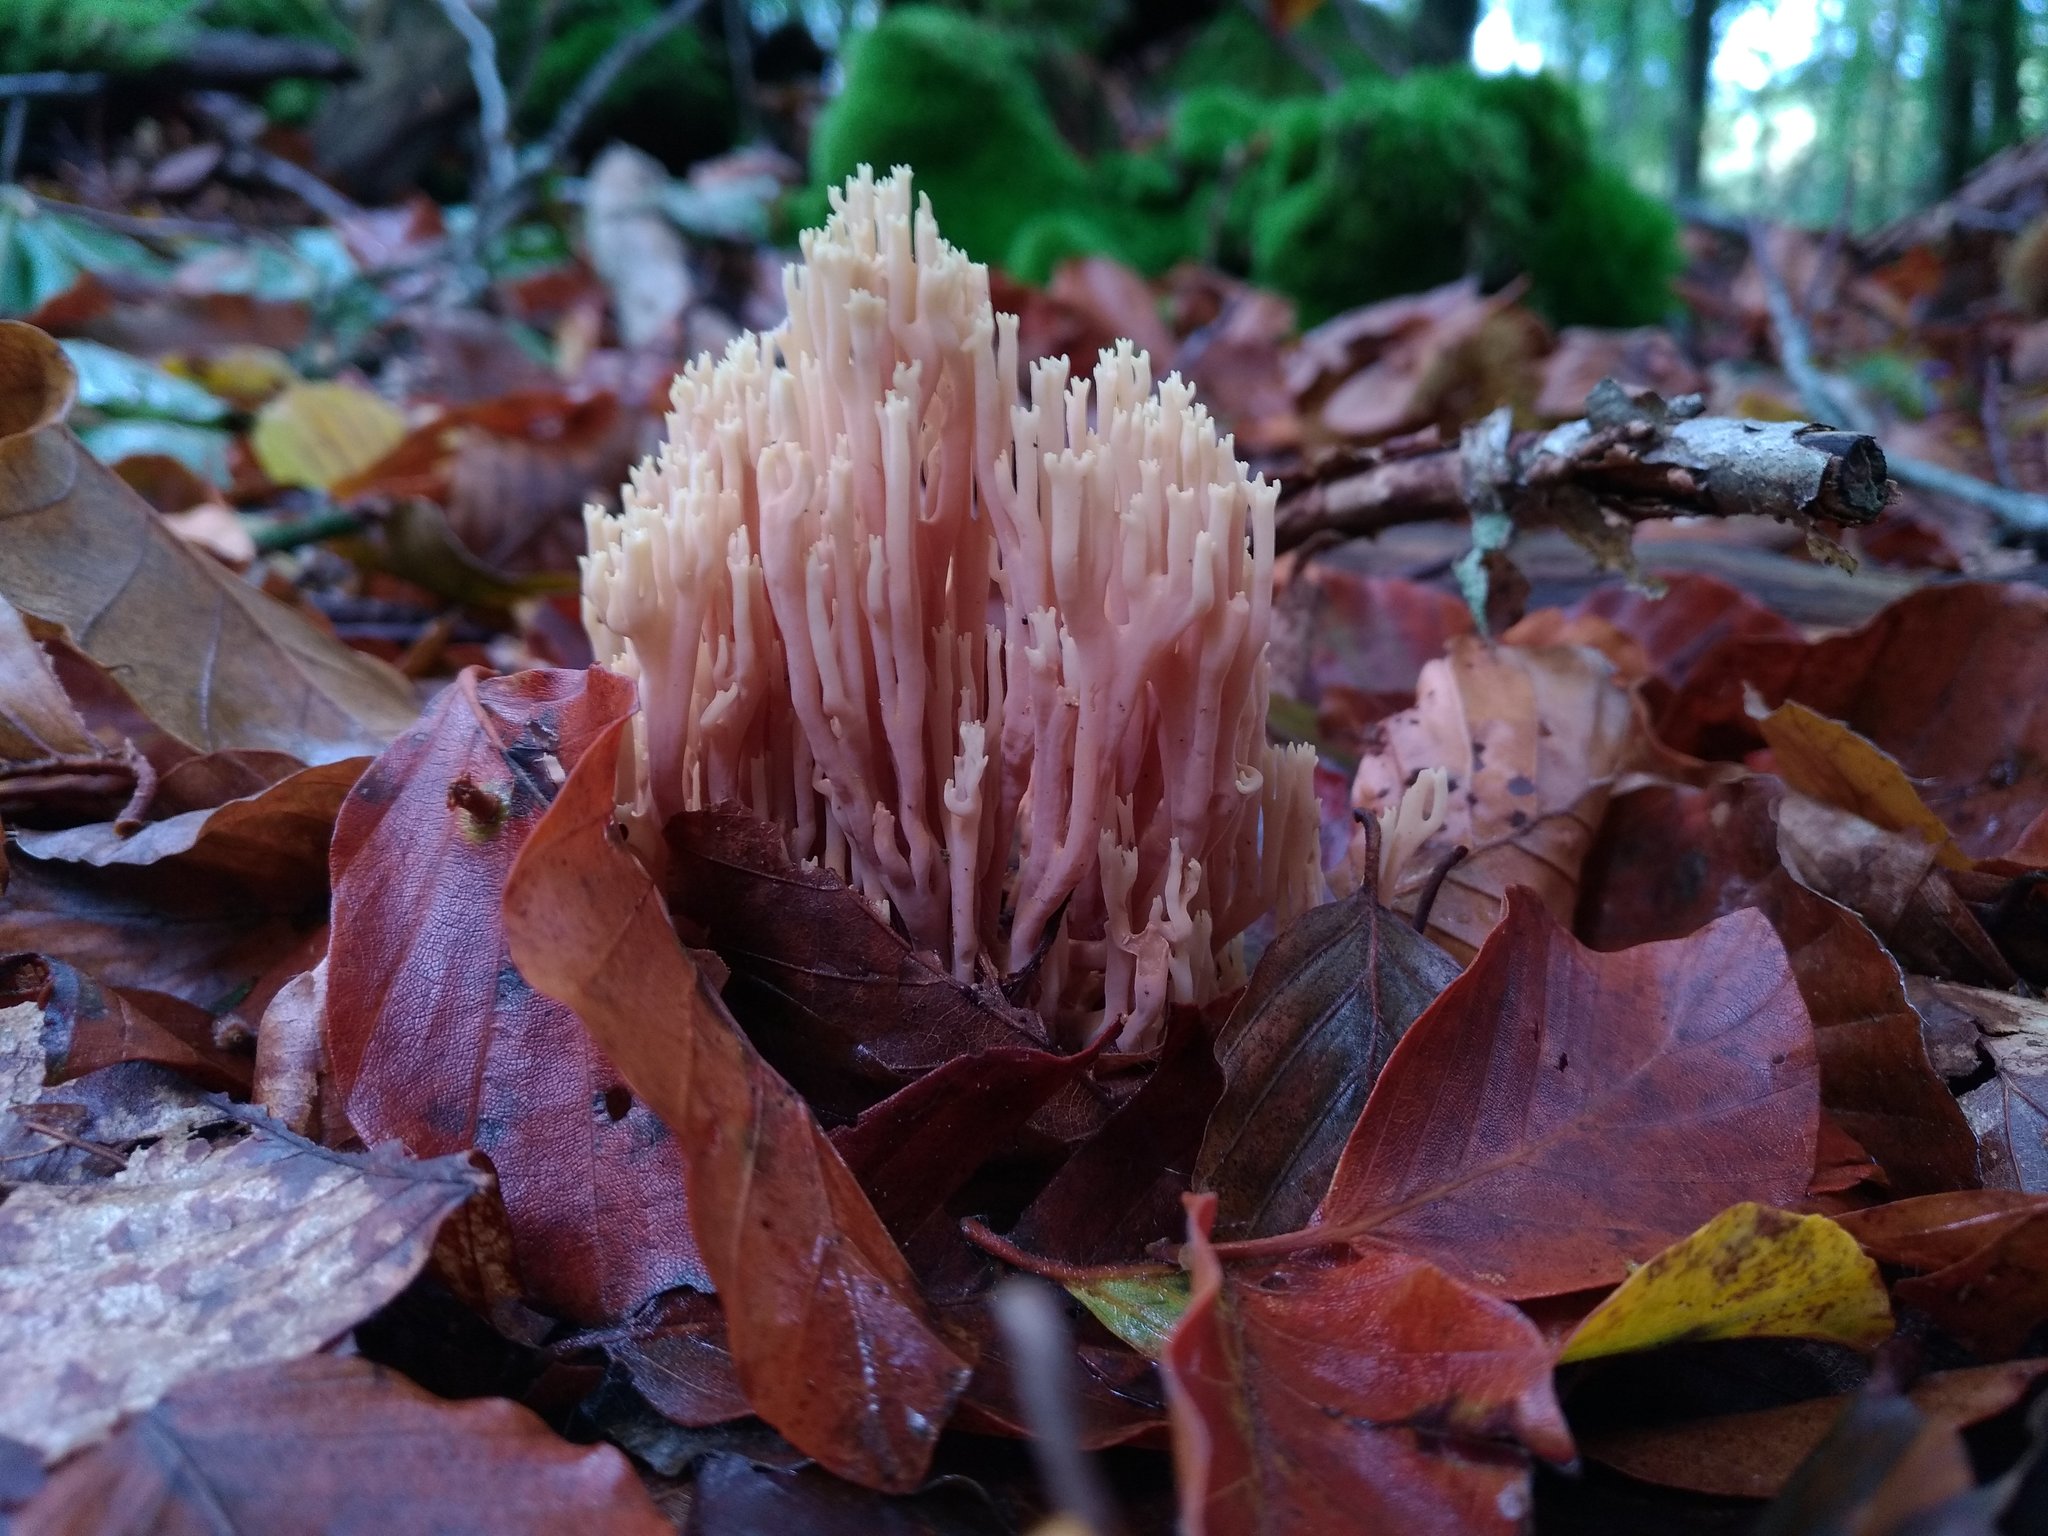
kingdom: Fungi
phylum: Basidiomycota
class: Agaricomycetes
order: Gomphales
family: Gomphaceae
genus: Ramaria
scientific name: Ramaria stricta
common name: Upright coral
